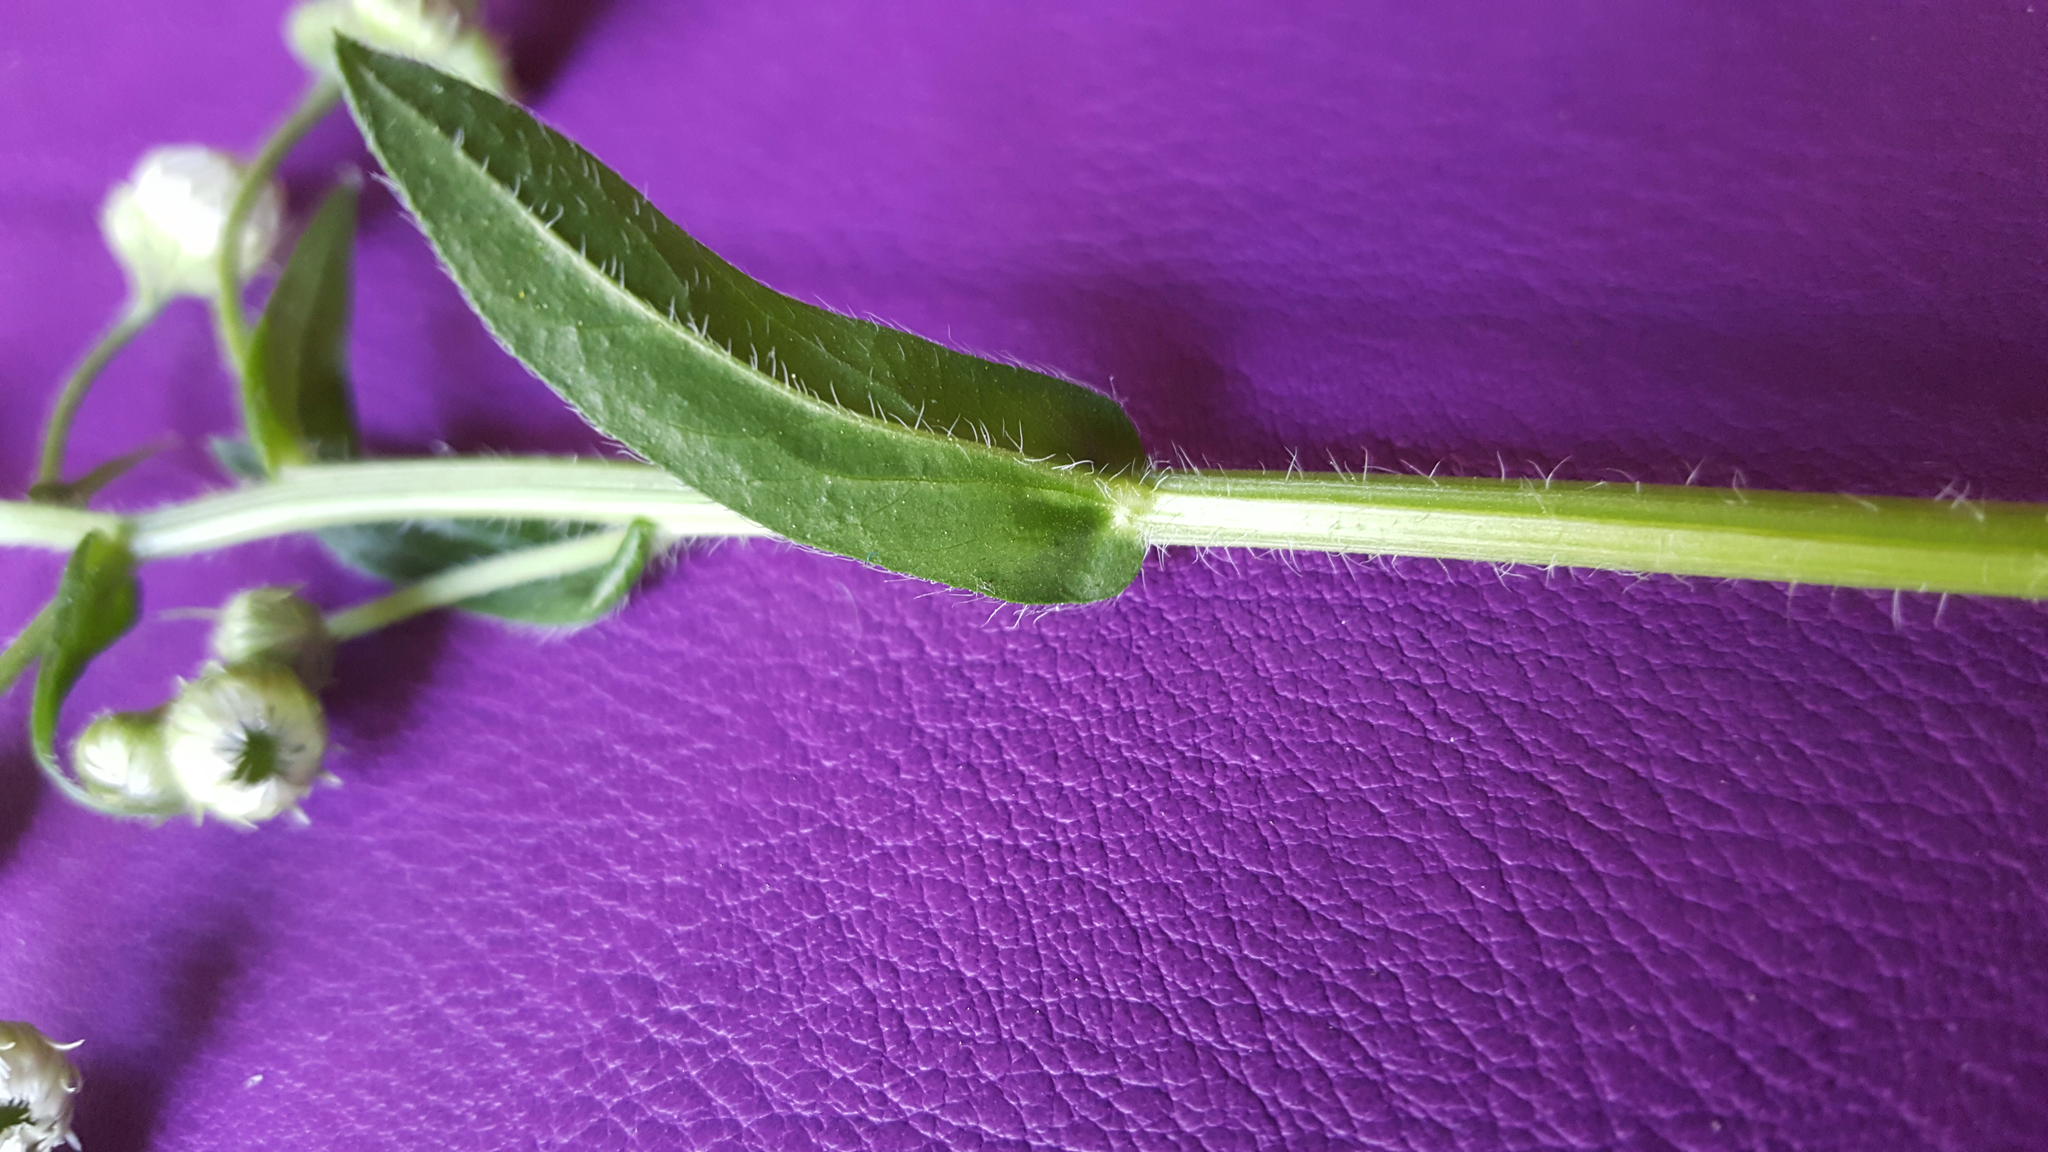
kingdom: Plantae
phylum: Tracheophyta
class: Magnoliopsida
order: Asterales
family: Asteraceae
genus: Erigeron
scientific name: Erigeron philadelphicus
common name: Robin's-plantain
